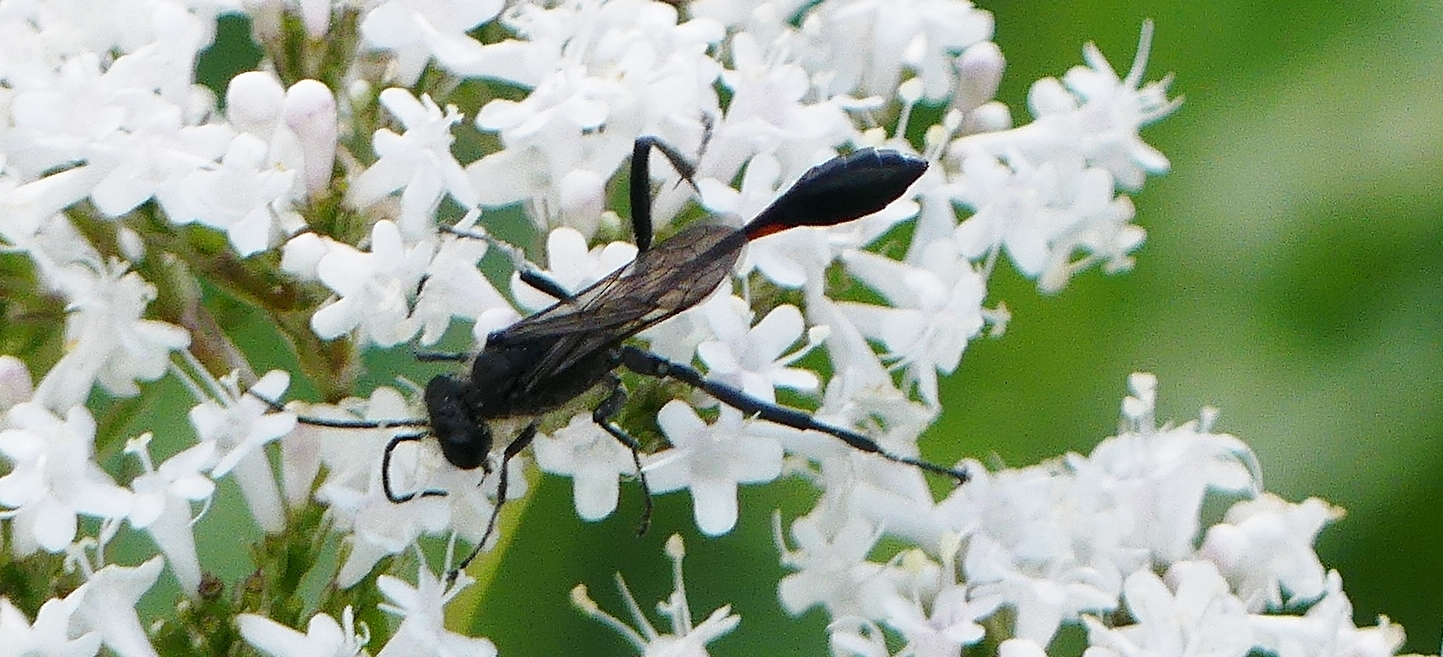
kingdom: Animalia
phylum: Arthropoda
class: Insecta
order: Hymenoptera
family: Sphecidae
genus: Ammophila
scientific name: Ammophila urnaria
